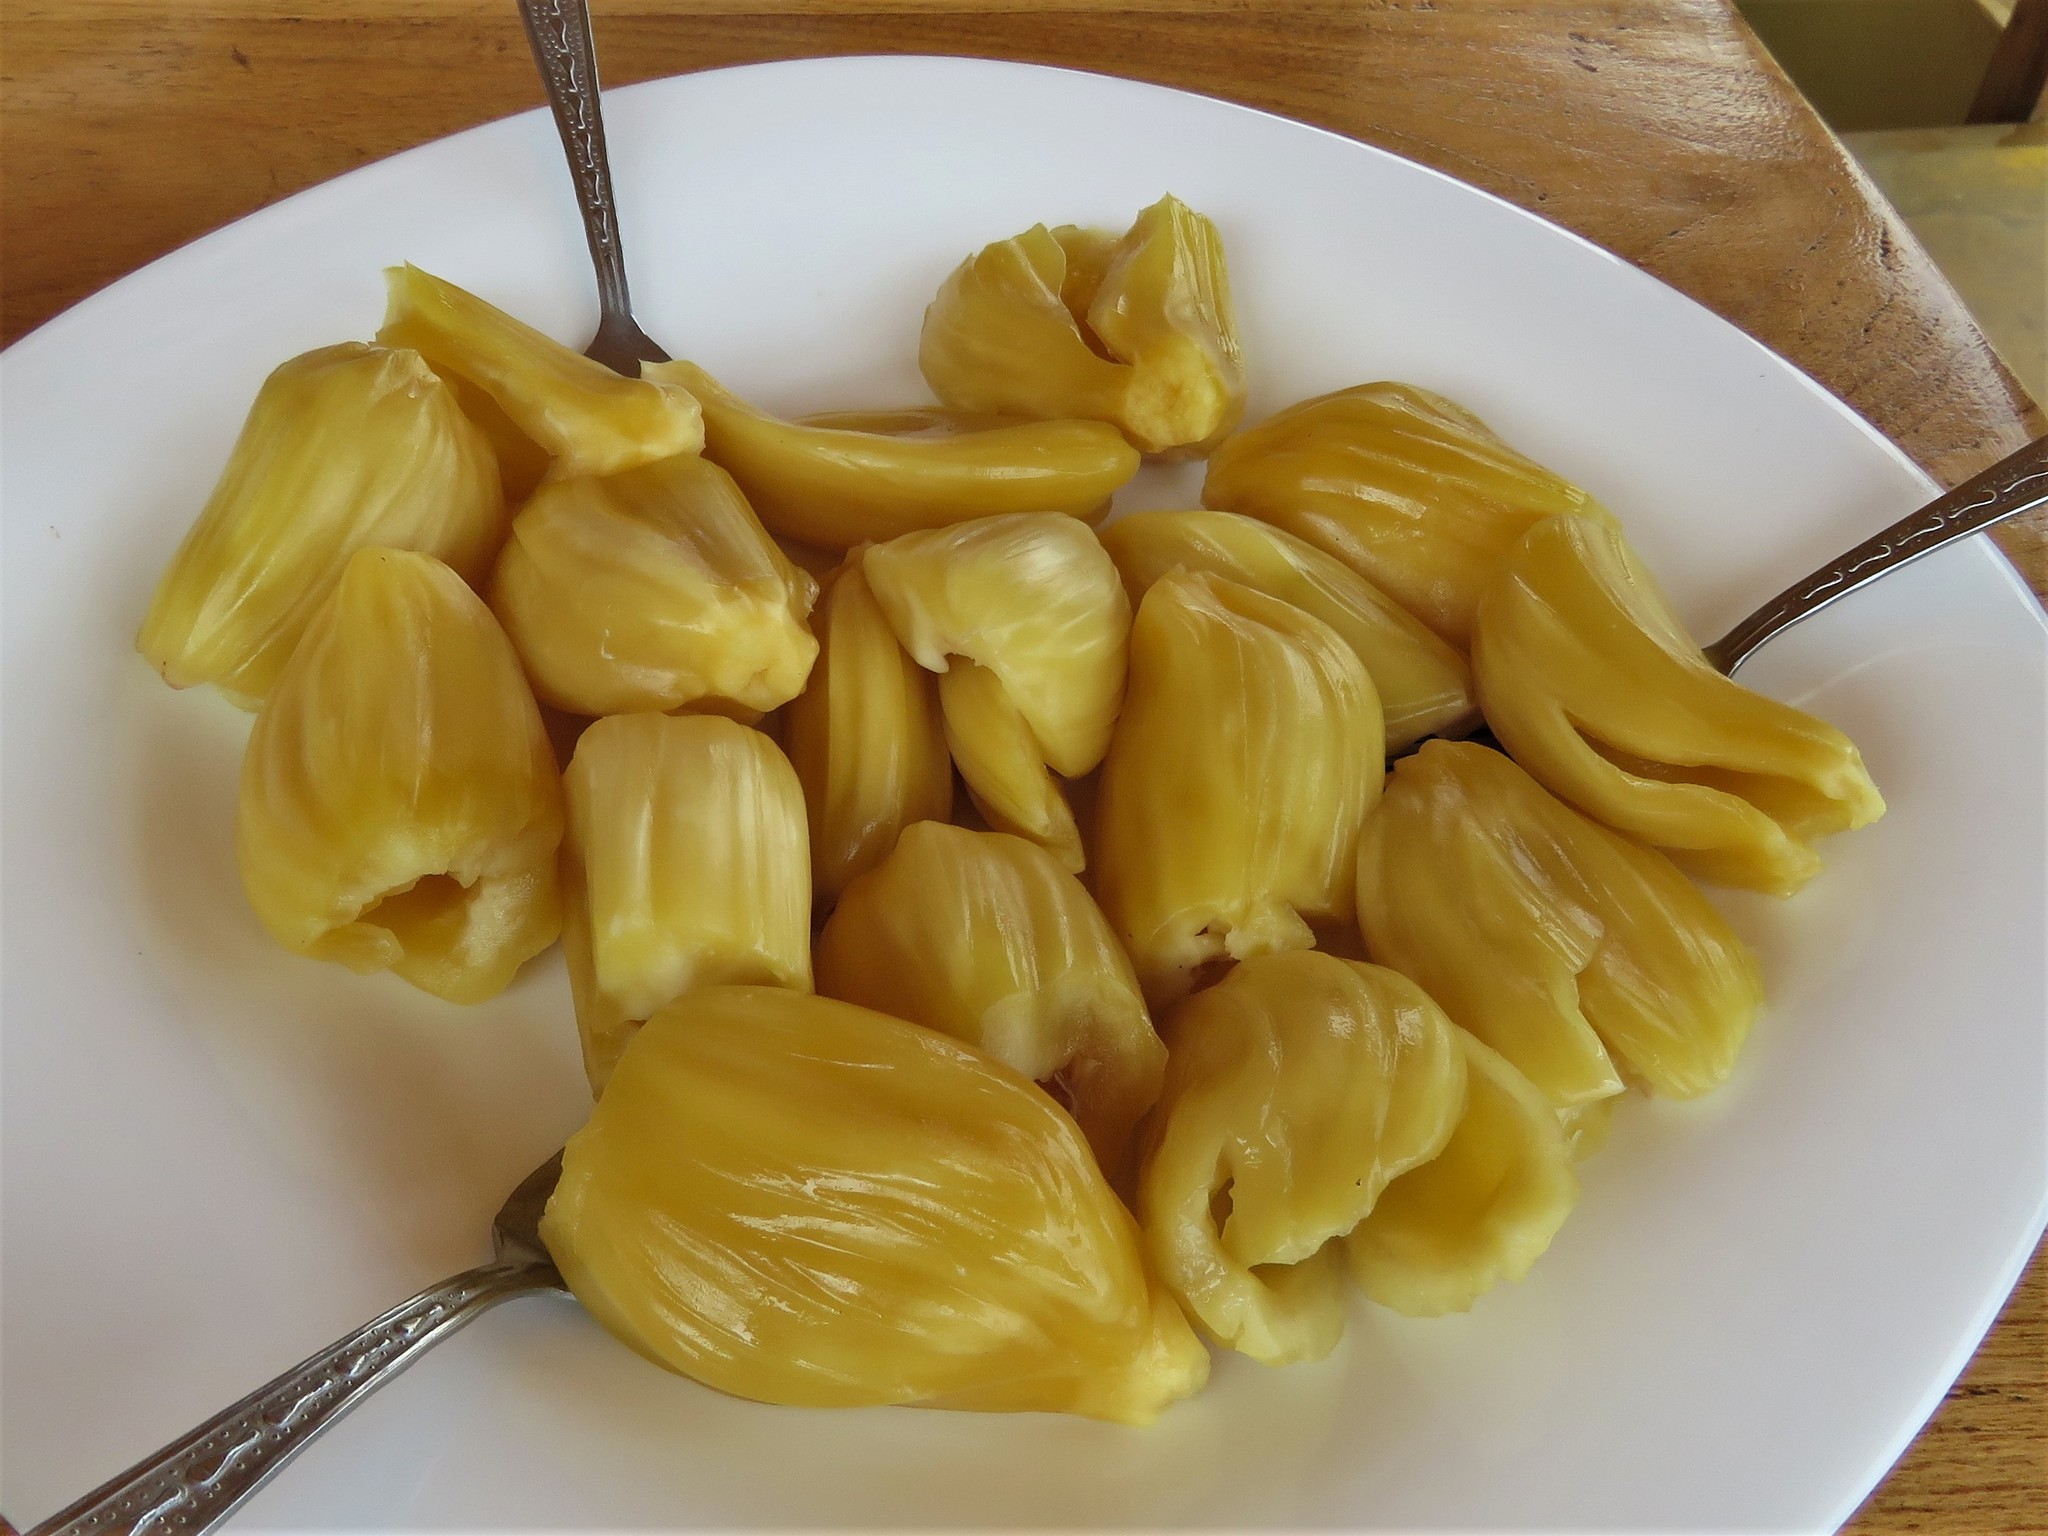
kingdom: Plantae
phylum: Tracheophyta
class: Magnoliopsida
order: Rosales
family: Moraceae
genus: Artocarpus
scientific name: Artocarpus heterophyllus
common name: Jackfruit
